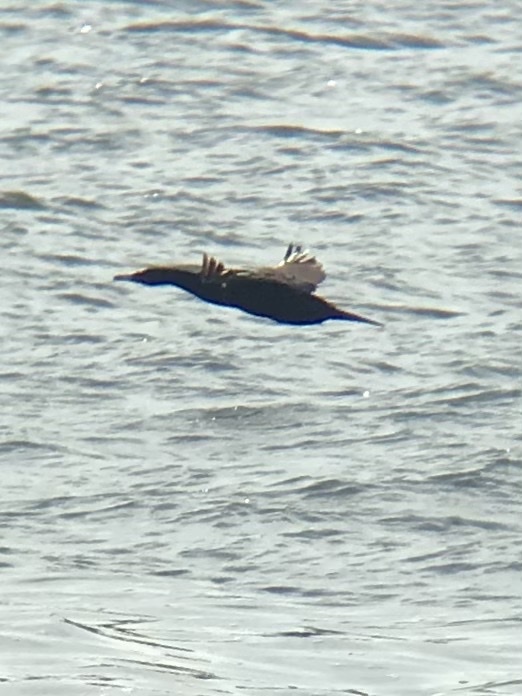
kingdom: Animalia
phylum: Chordata
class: Aves
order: Suliformes
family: Phalacrocoracidae
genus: Phalacrocorax
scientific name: Phalacrocorax auritus
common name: Double-crested cormorant
